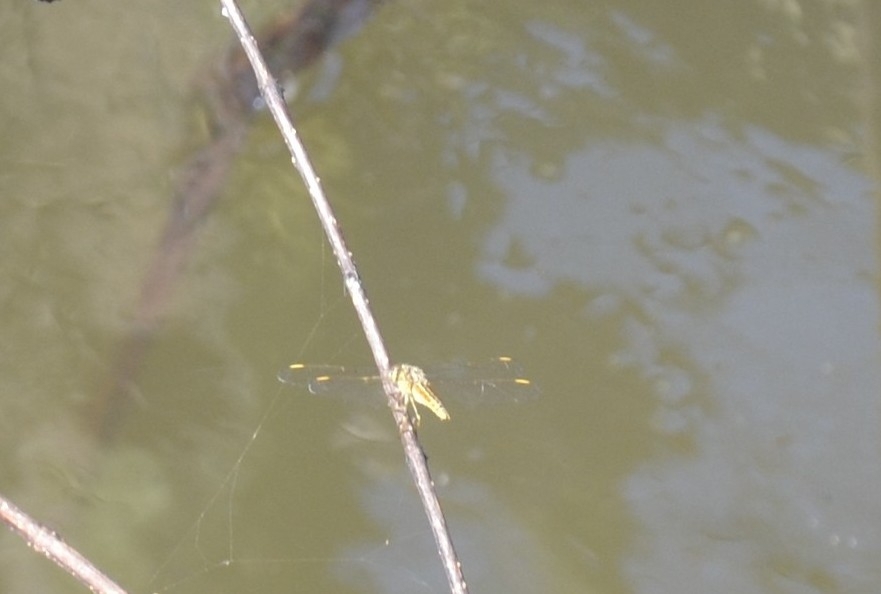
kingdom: Animalia
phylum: Arthropoda
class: Insecta
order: Odonata
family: Libellulidae
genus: Brachythemis
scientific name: Brachythemis contaminata
